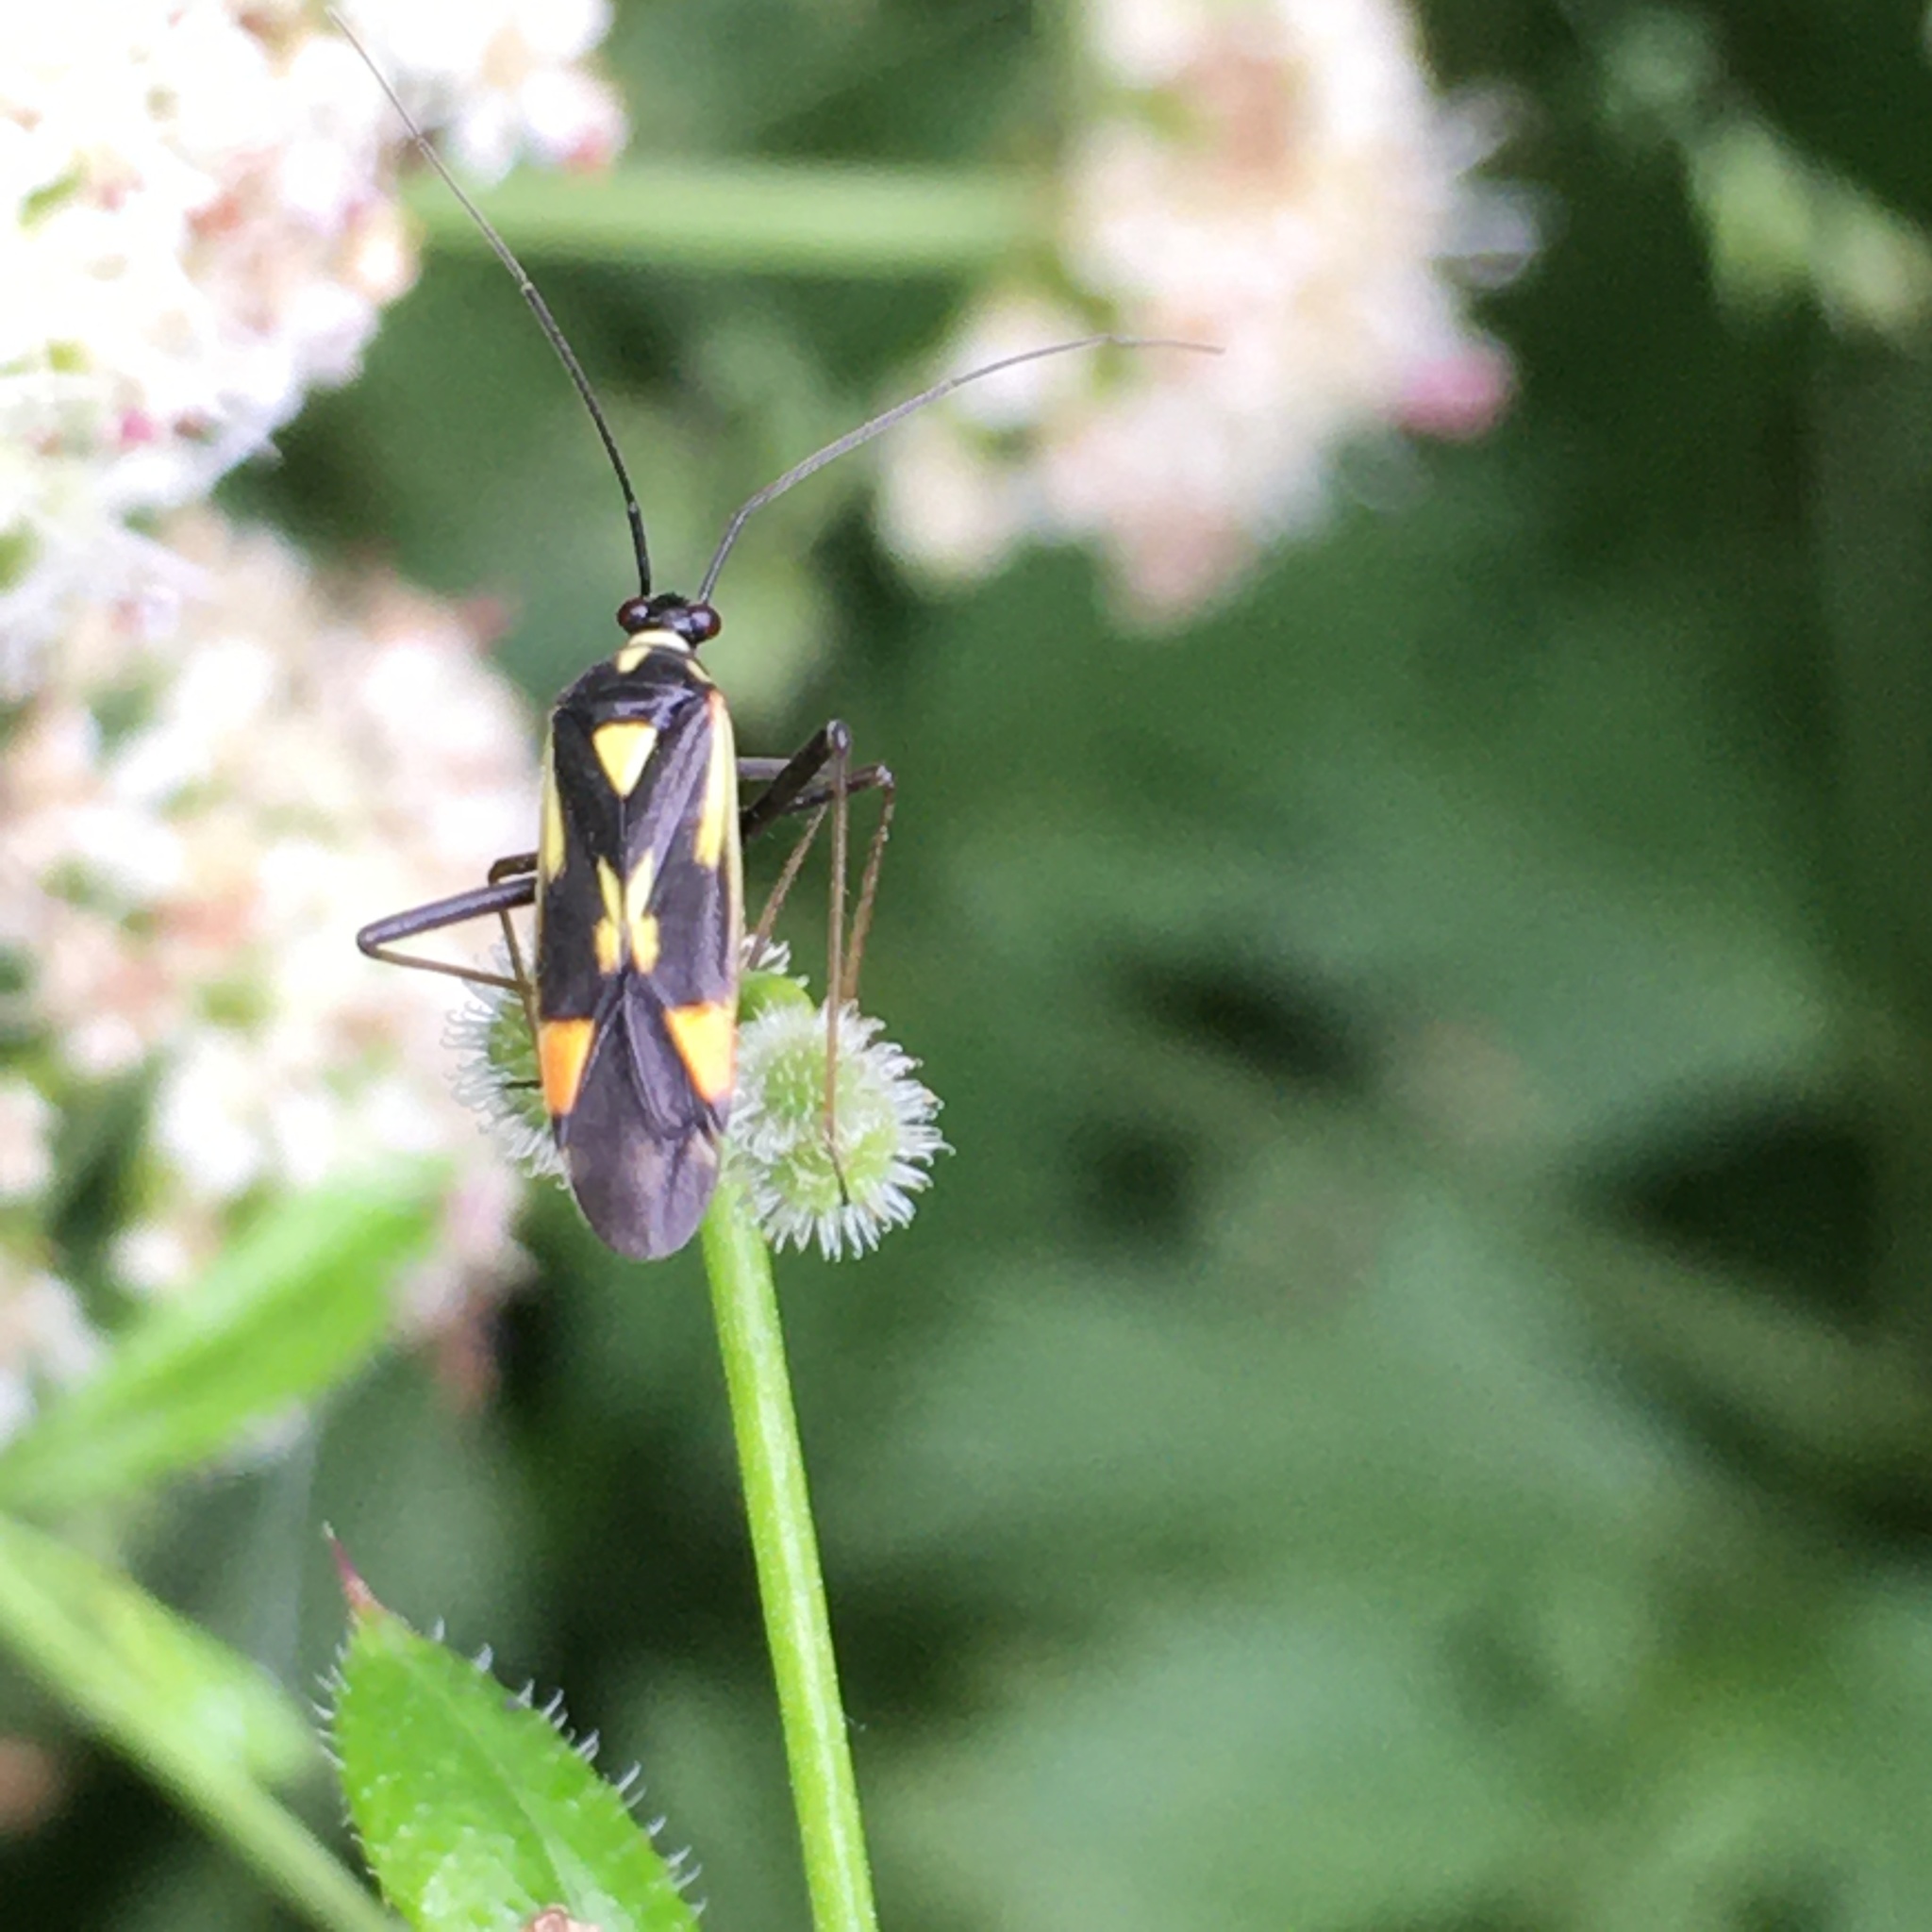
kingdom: Animalia
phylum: Arthropoda
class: Insecta
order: Hemiptera
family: Miridae
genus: Grypocoris
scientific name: Grypocoris stysi
